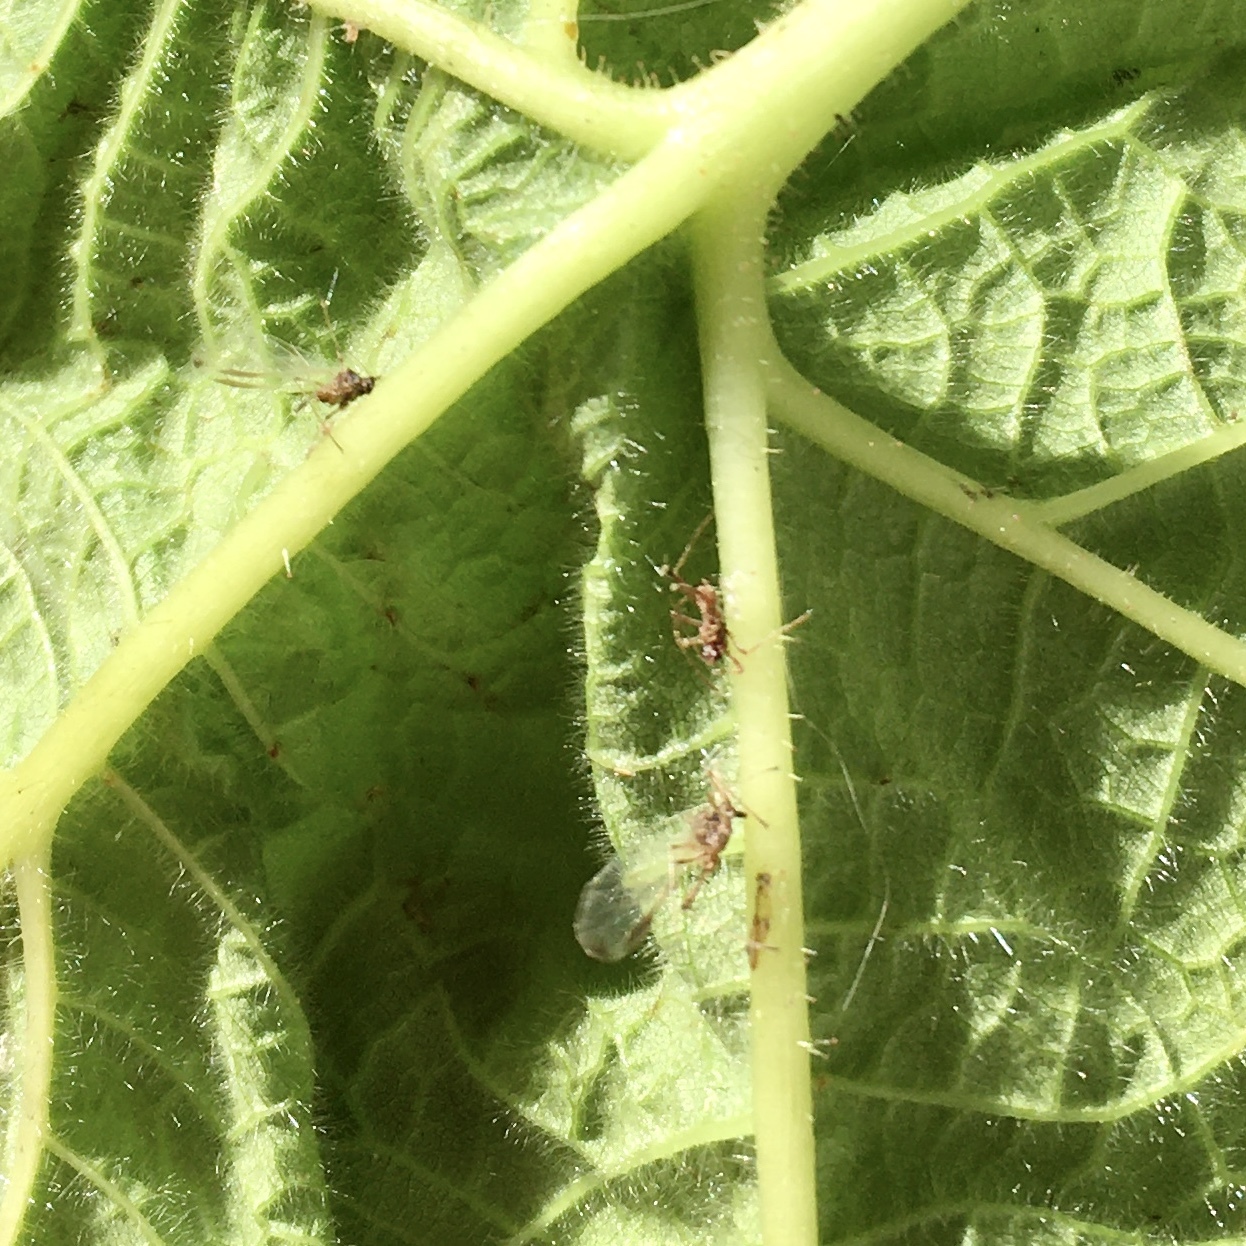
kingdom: Animalia
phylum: Arthropoda
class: Insecta
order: Hymenoptera
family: Cynipidae
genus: Diastrophus
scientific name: Diastrophus
